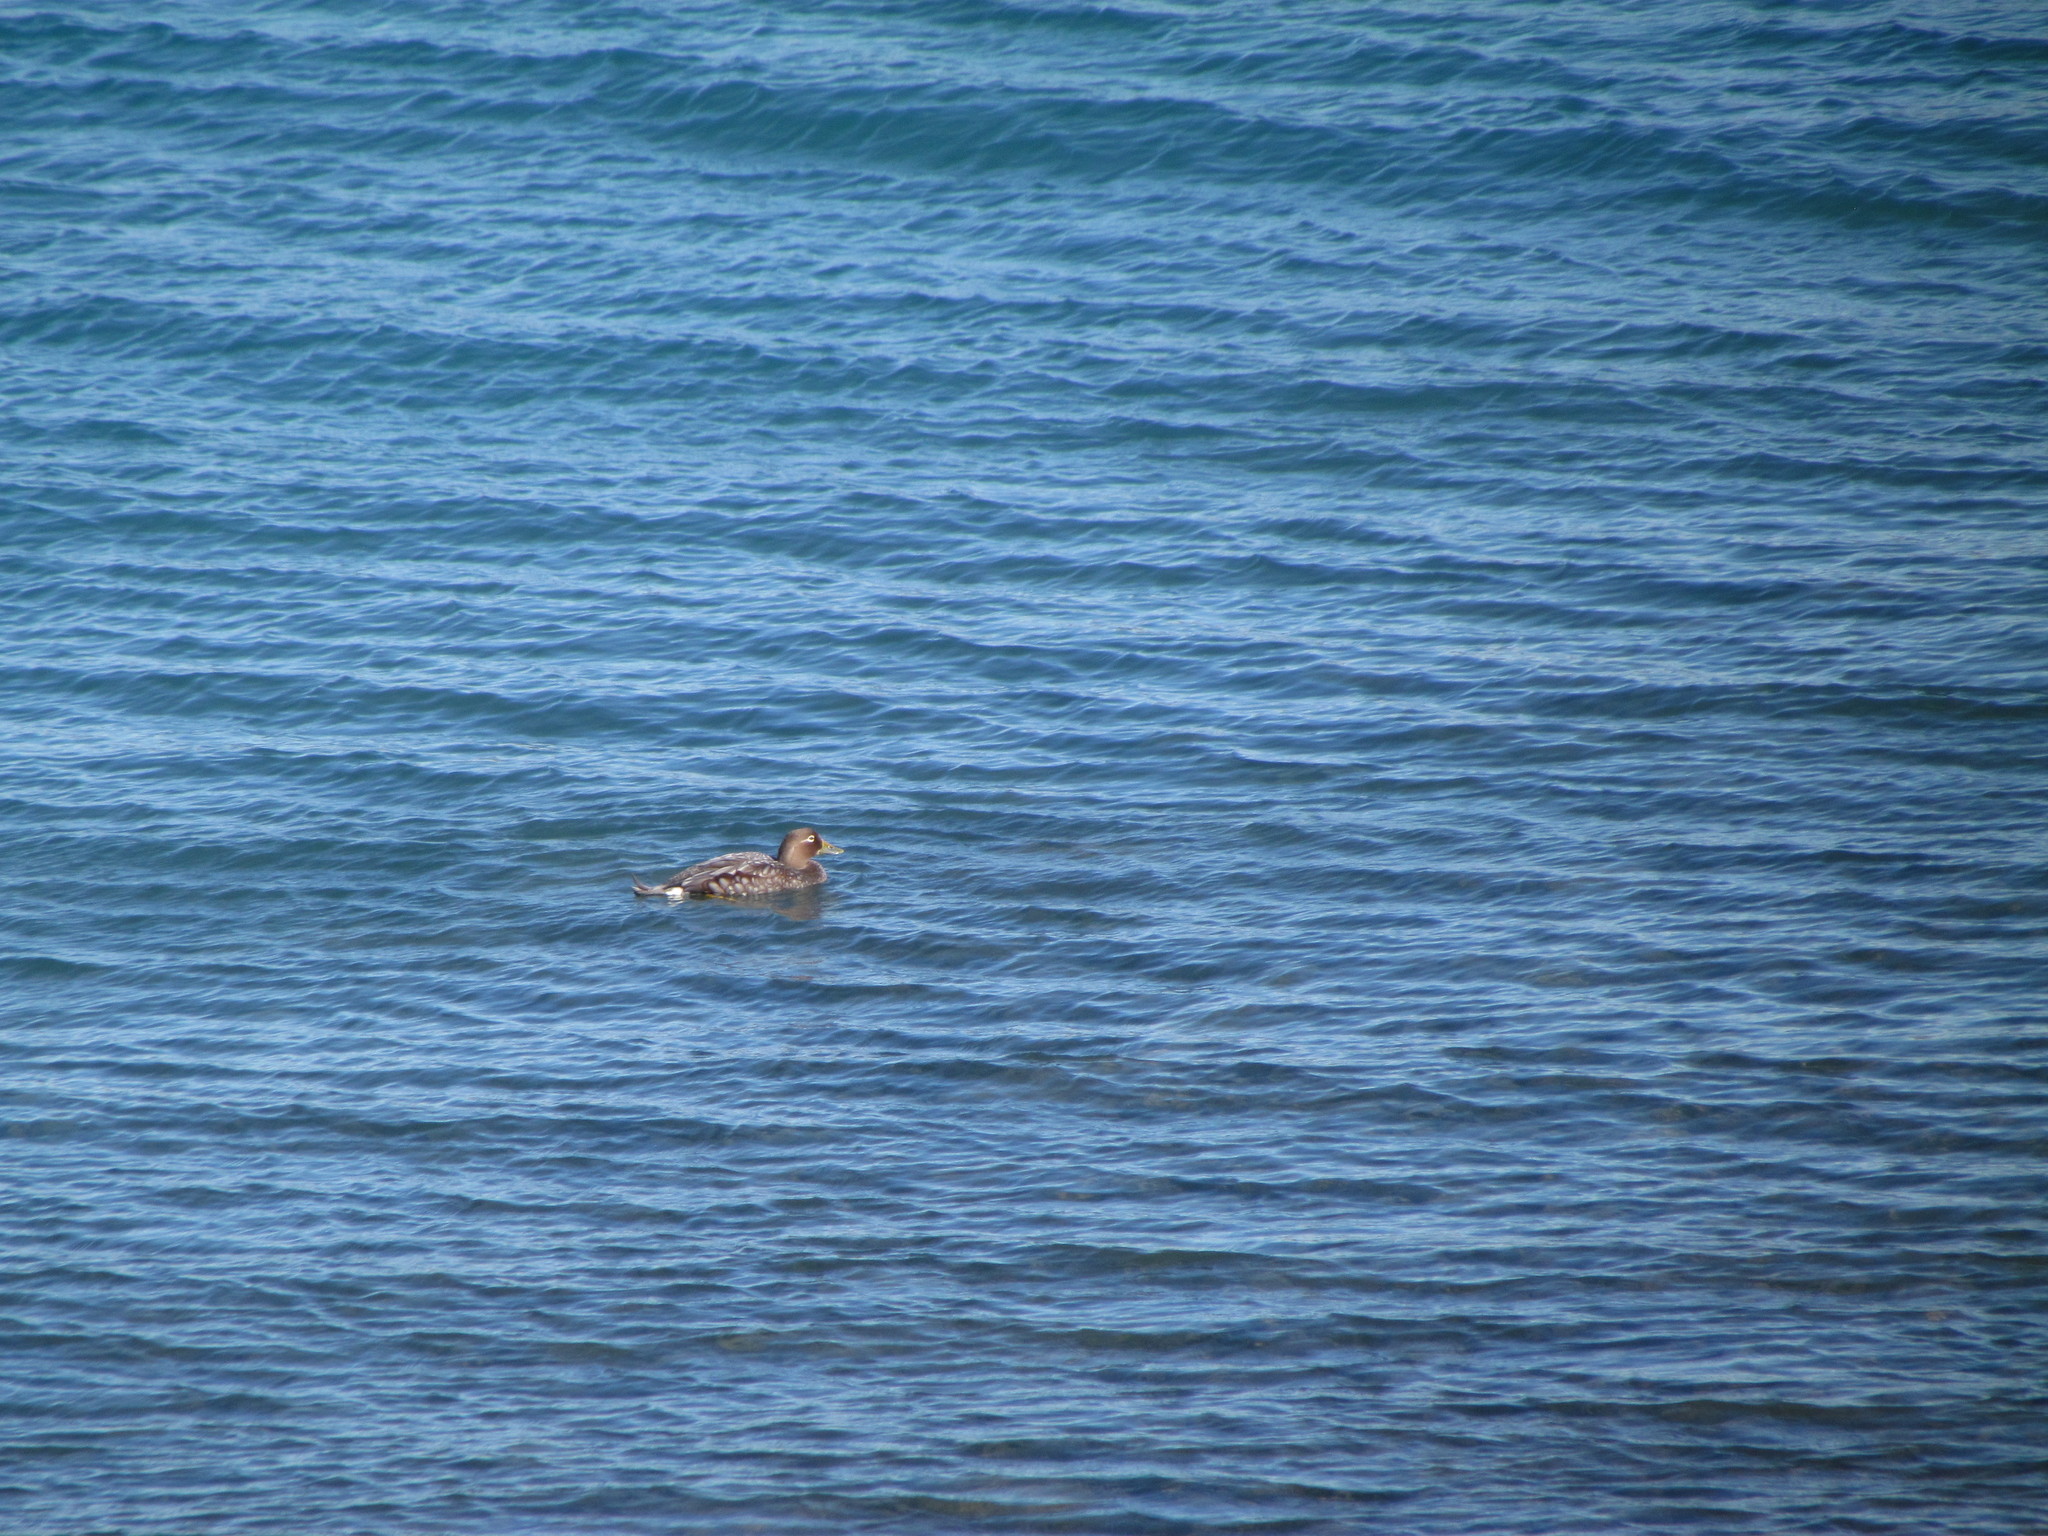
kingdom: Animalia
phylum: Chordata
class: Aves
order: Anseriformes
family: Anatidae
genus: Tachyeres
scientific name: Tachyeres patachonicus
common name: Flying steamer duck
